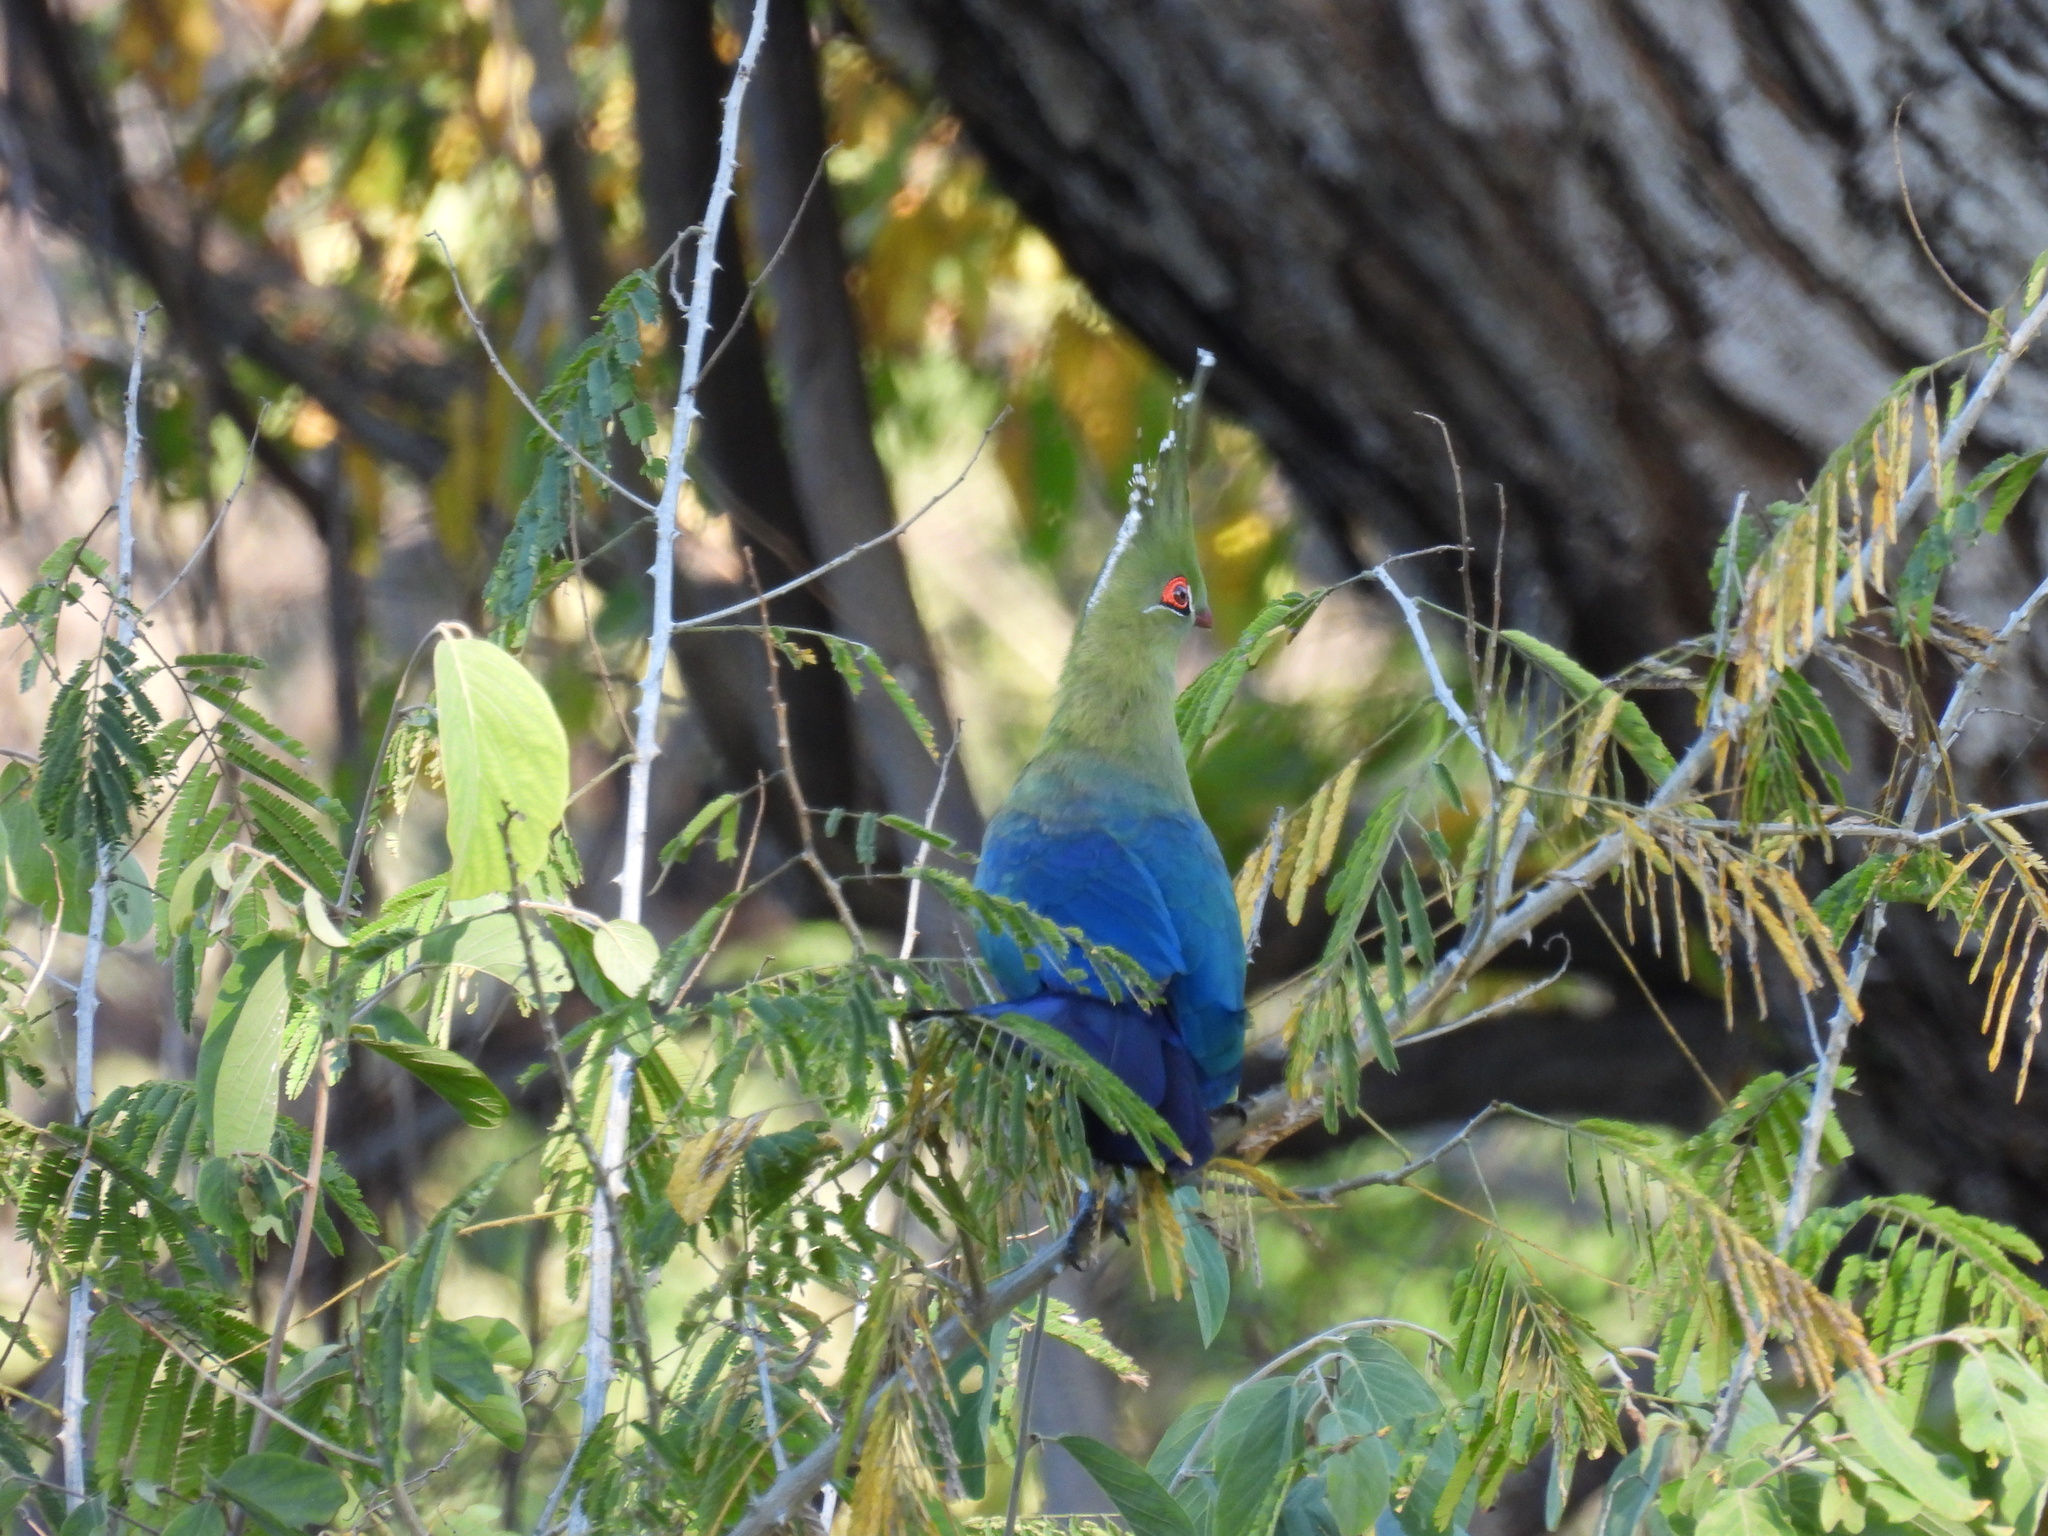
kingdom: Animalia
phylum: Chordata
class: Aves
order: Musophagiformes
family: Musophagidae
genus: Tauraco
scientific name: Tauraco schalowi
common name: Schalow's turaco
